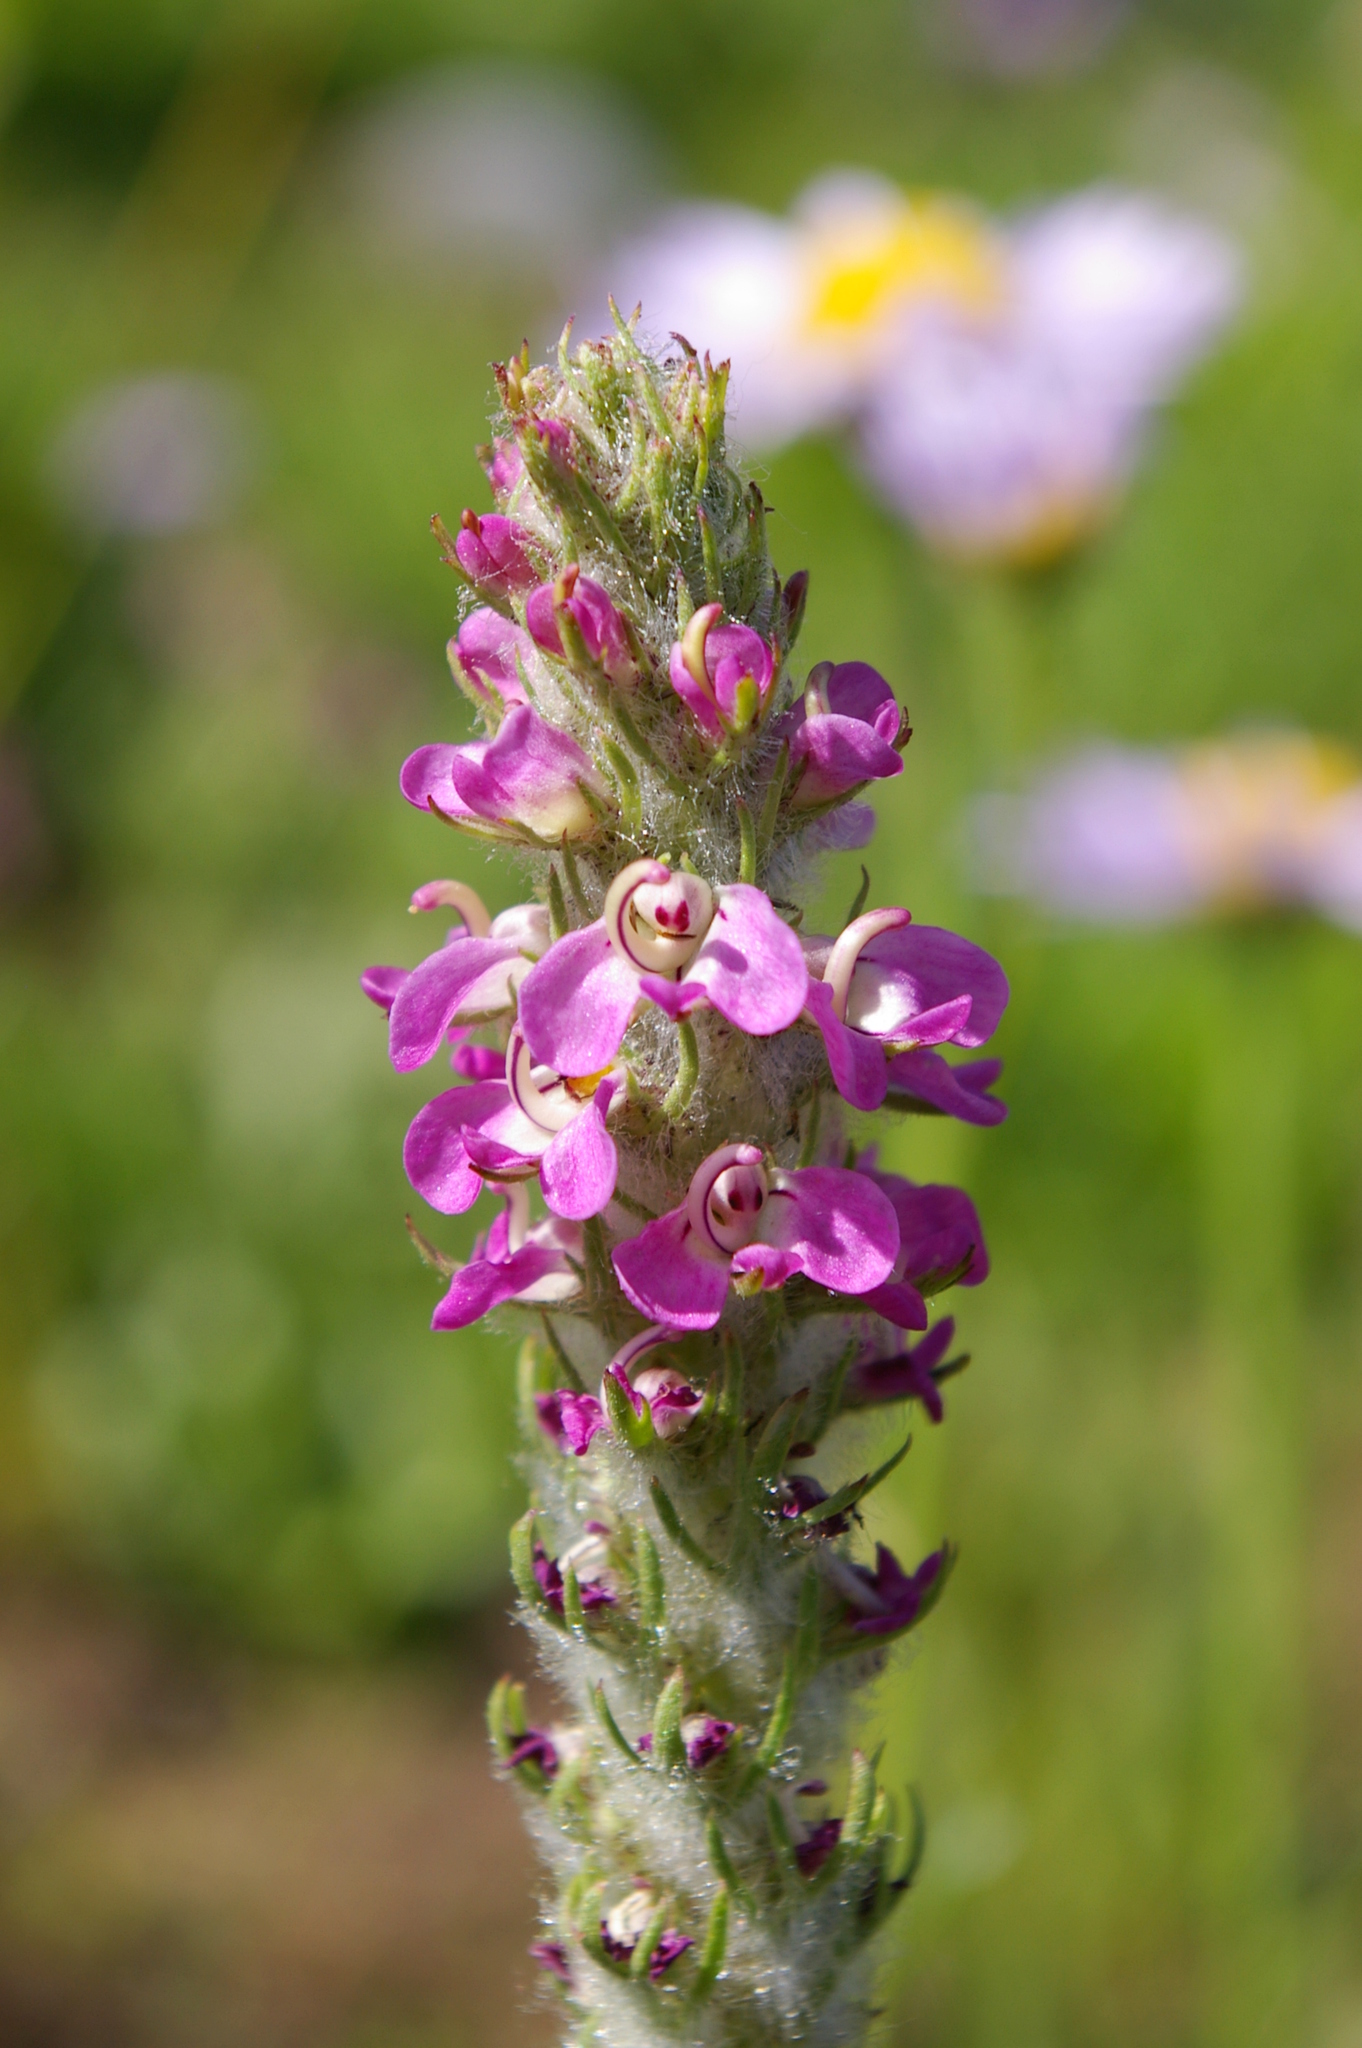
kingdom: Plantae
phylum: Tracheophyta
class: Magnoliopsida
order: Lamiales
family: Orobanchaceae
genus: Pedicularis
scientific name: Pedicularis attollens
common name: Slender pedicularis
